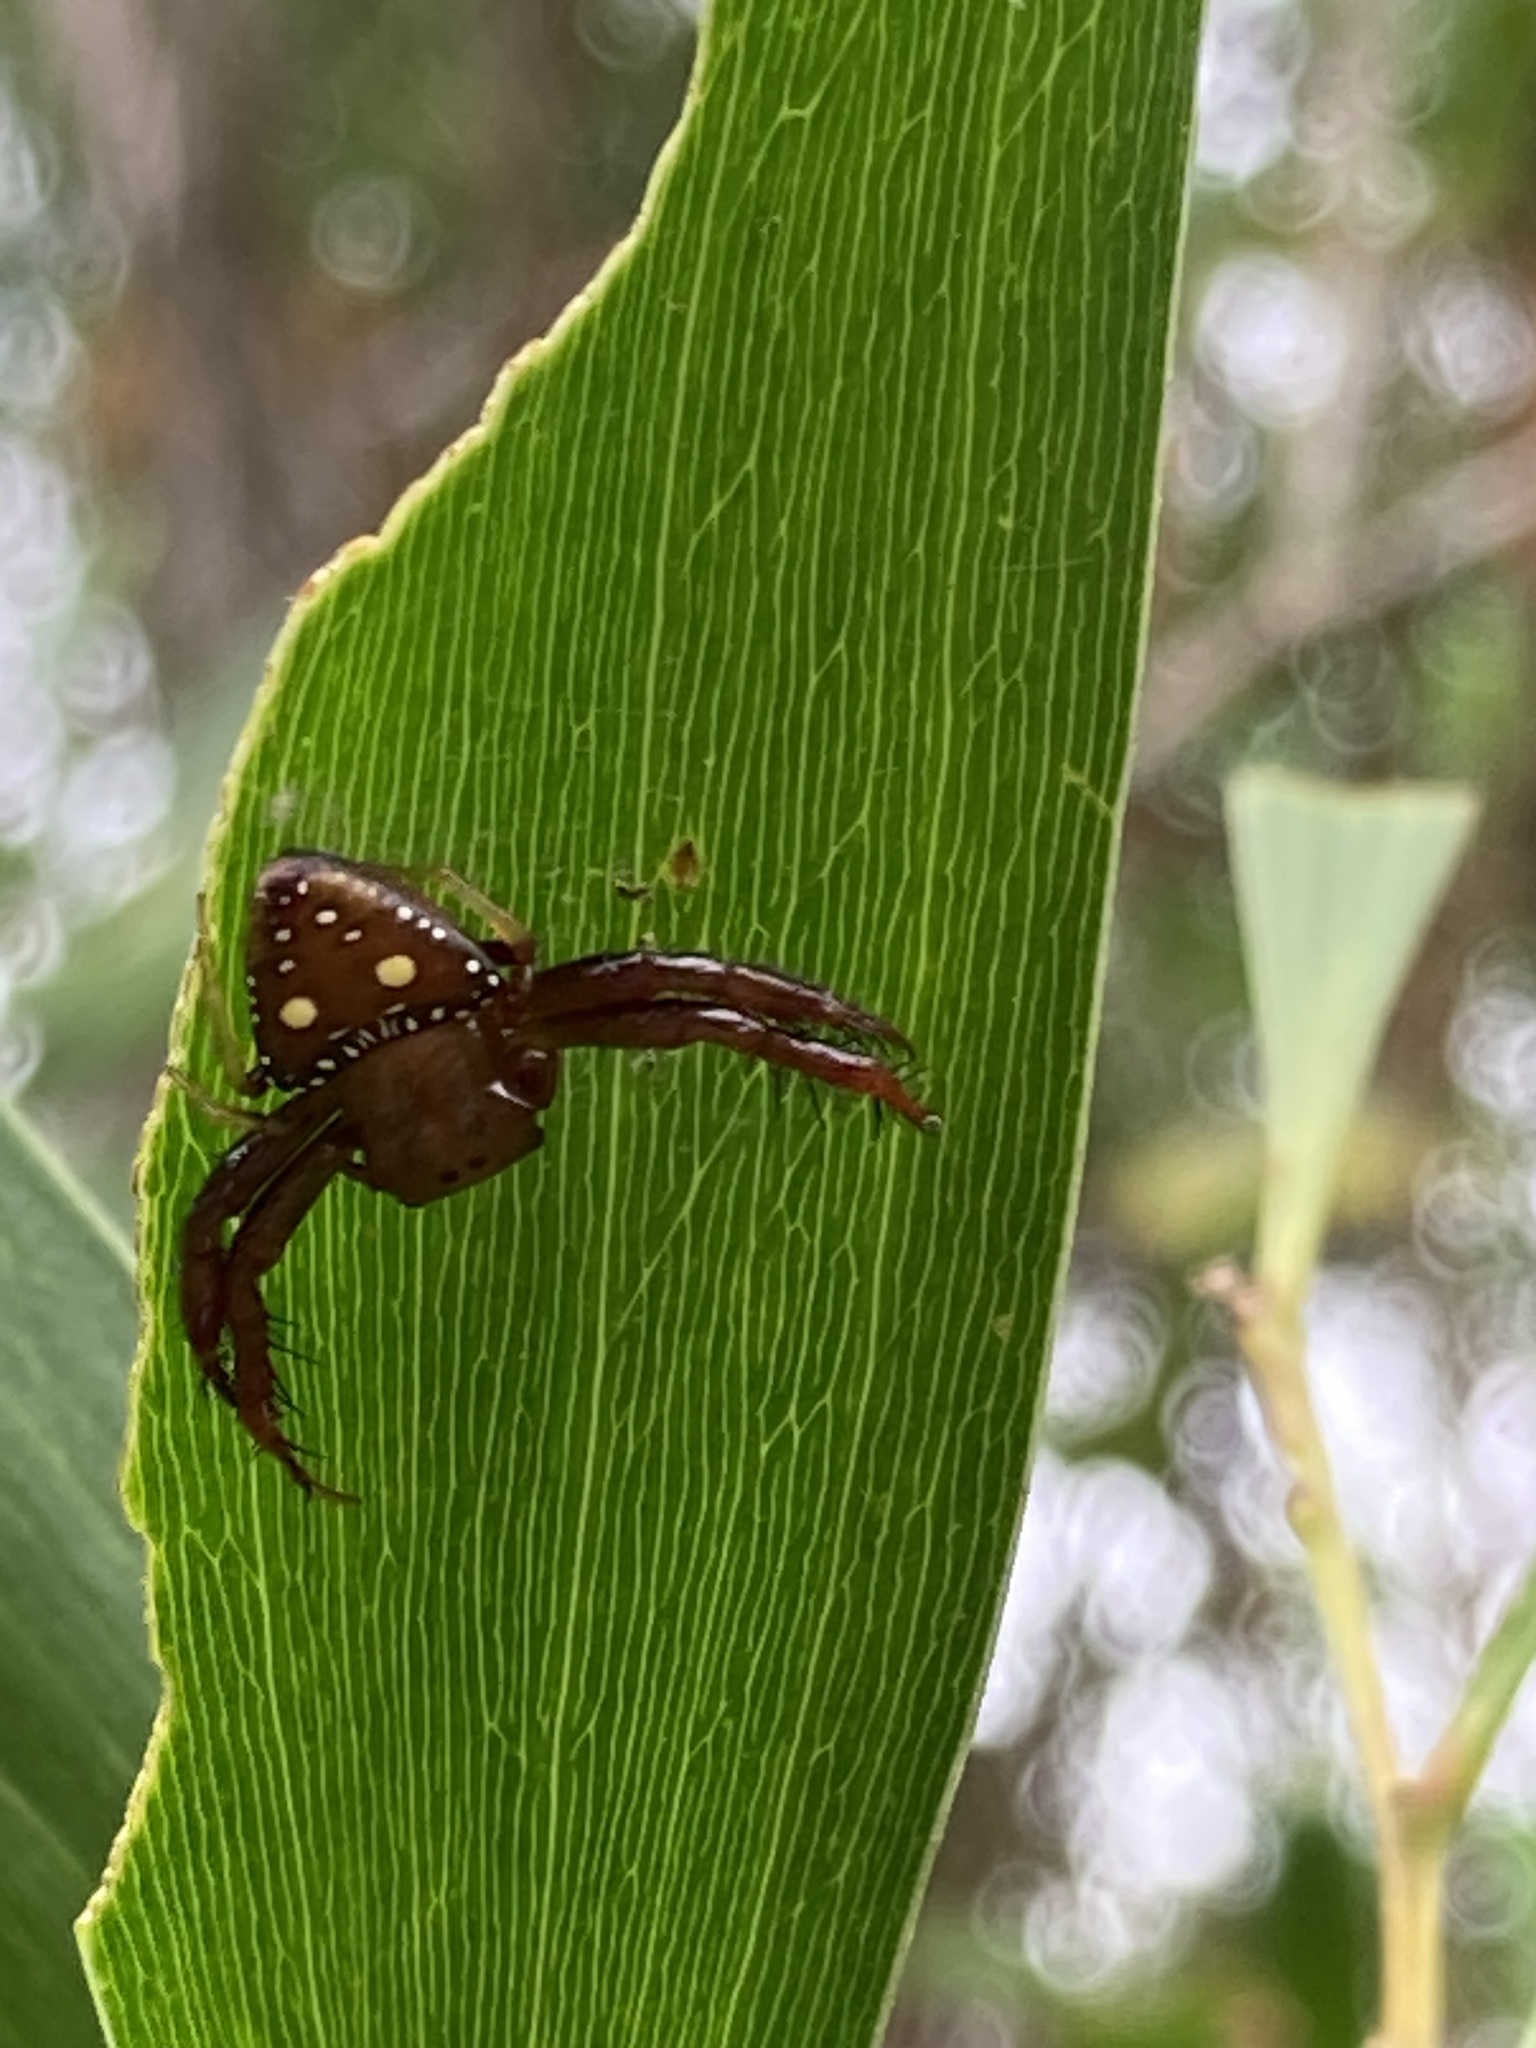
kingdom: Animalia
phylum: Arthropoda
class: Arachnida
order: Araneae
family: Arkyidae
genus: Arkys
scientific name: Arkys lancearius
